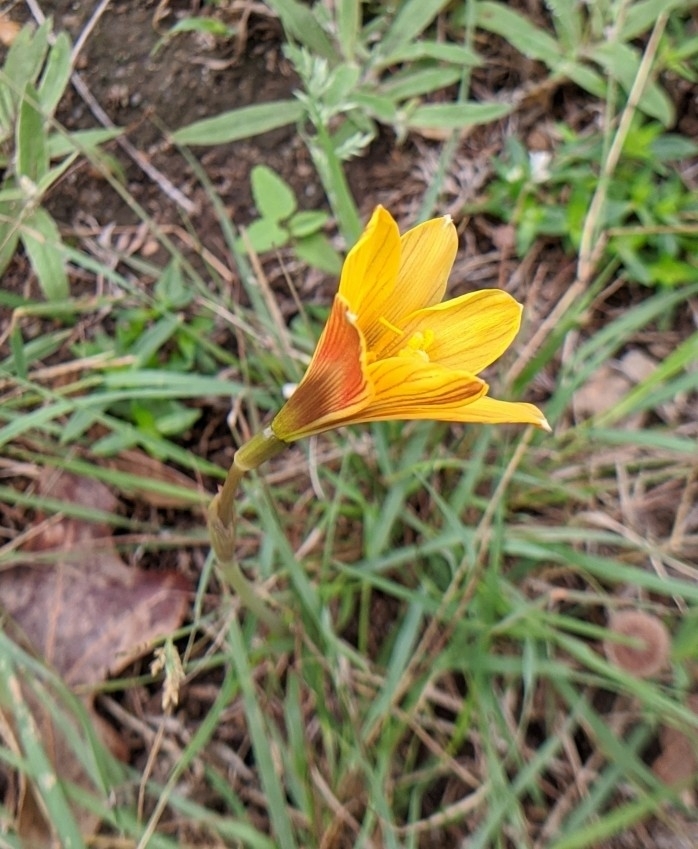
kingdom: Plantae
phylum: Tracheophyta
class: Liliopsida
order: Asparagales
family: Amaryllidaceae
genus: Zephyranthes
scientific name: Zephyranthes tubispatha
